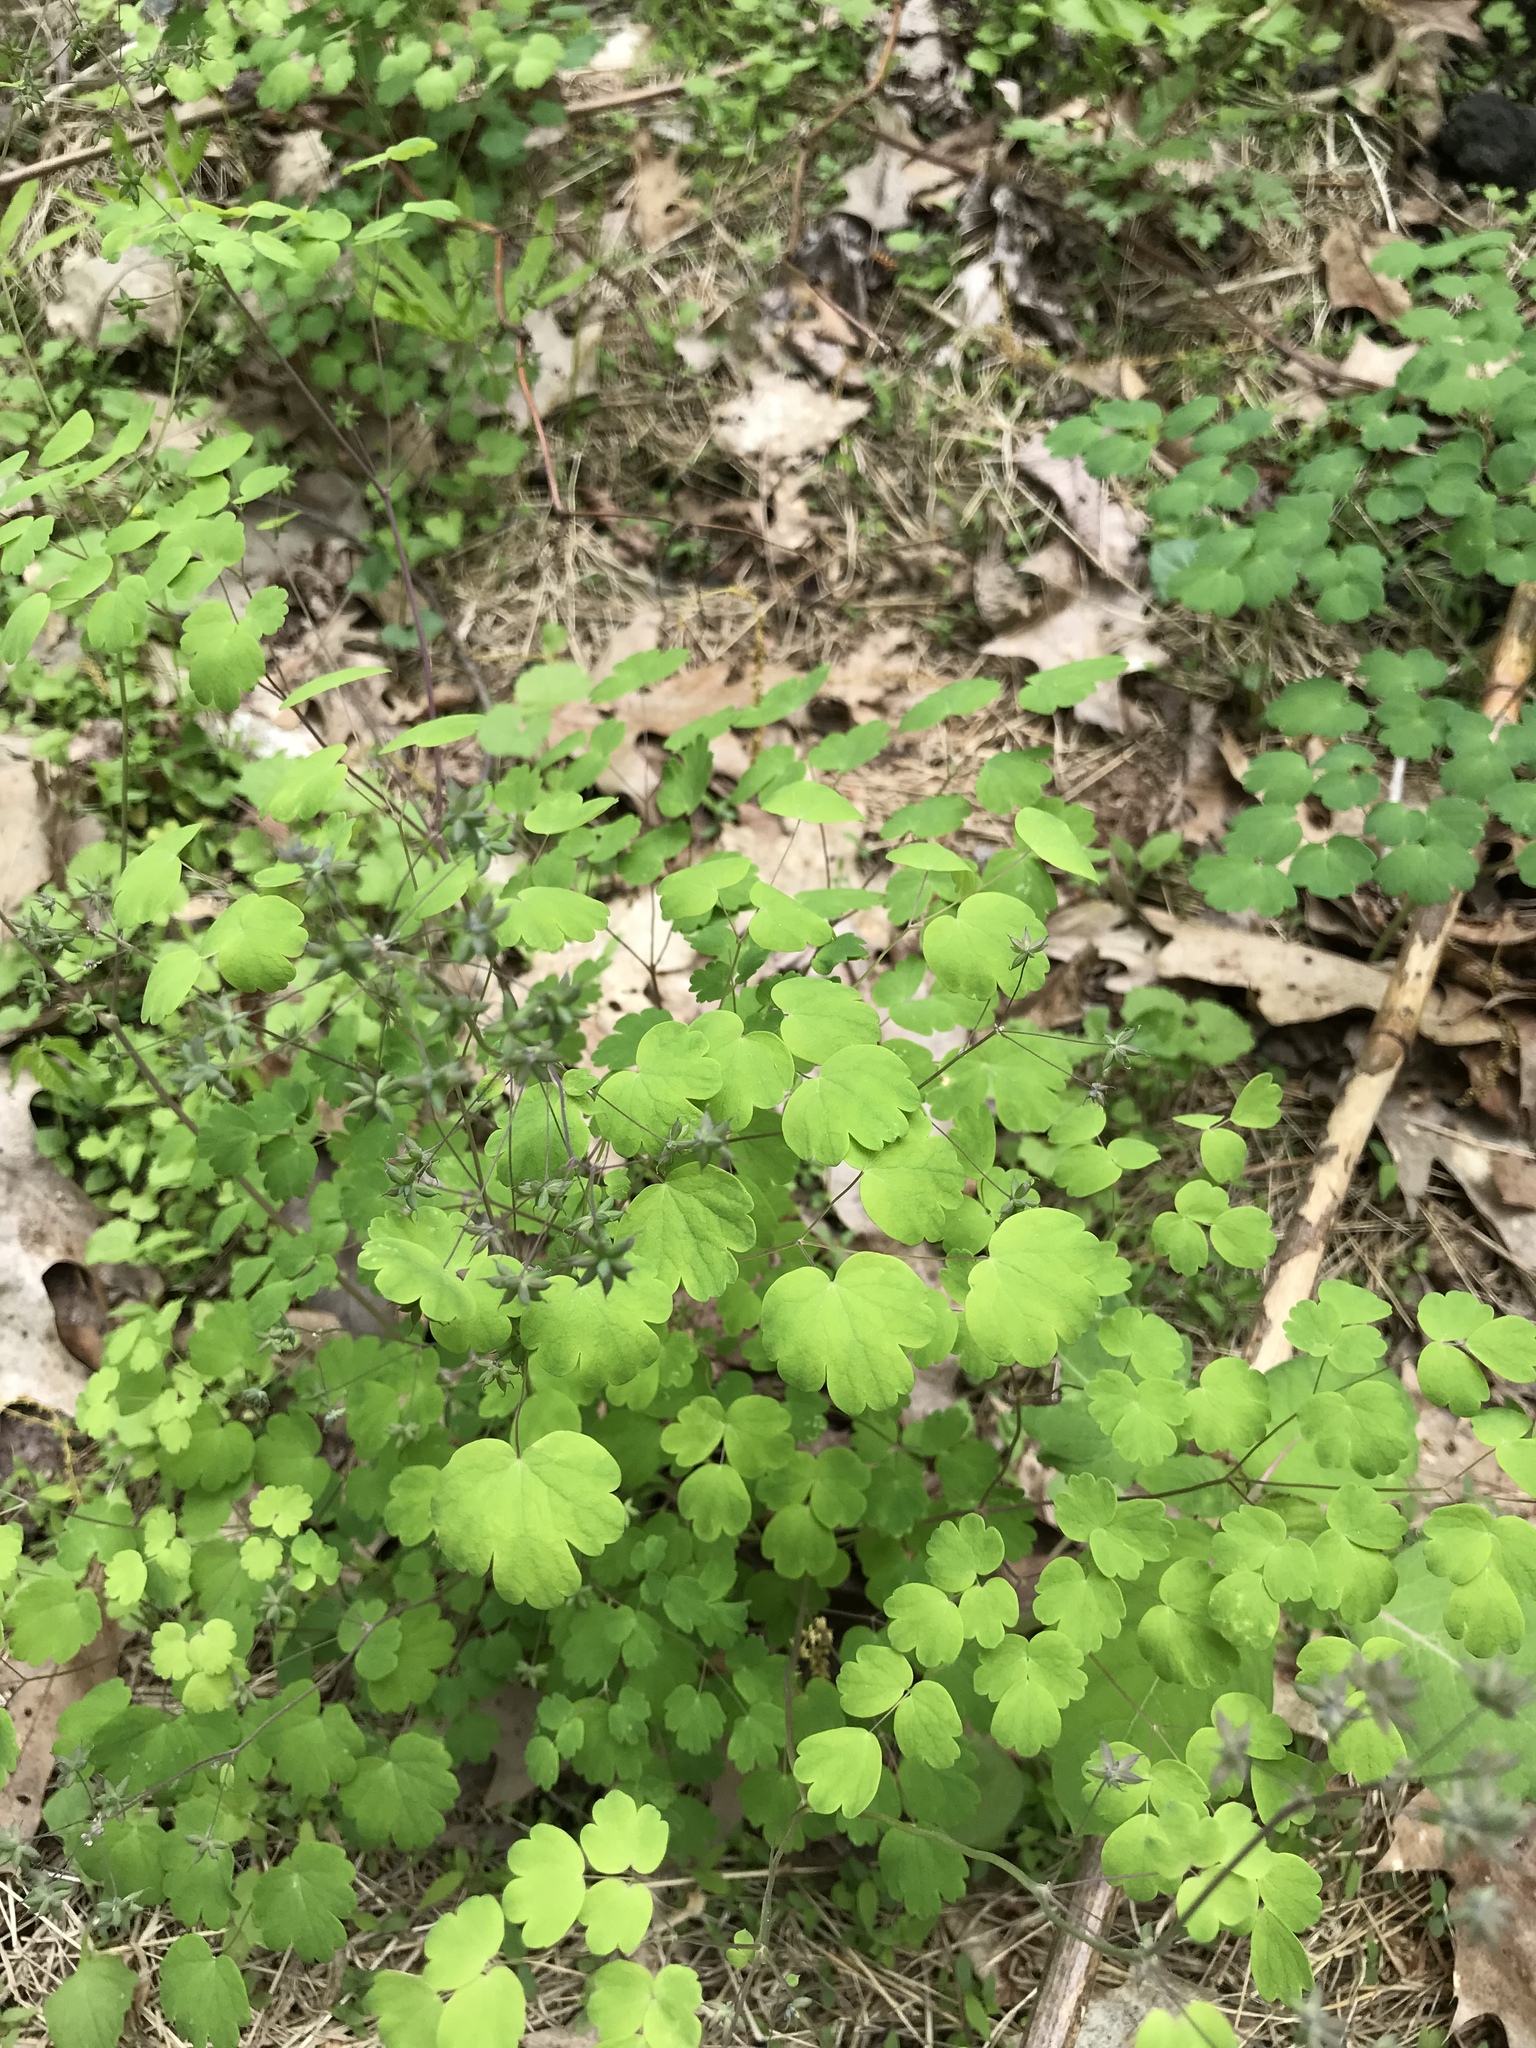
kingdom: Plantae
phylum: Tracheophyta
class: Magnoliopsida
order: Ranunculales
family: Ranunculaceae
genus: Thalictrum
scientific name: Thalictrum dioicum
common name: Early meadow-rue
